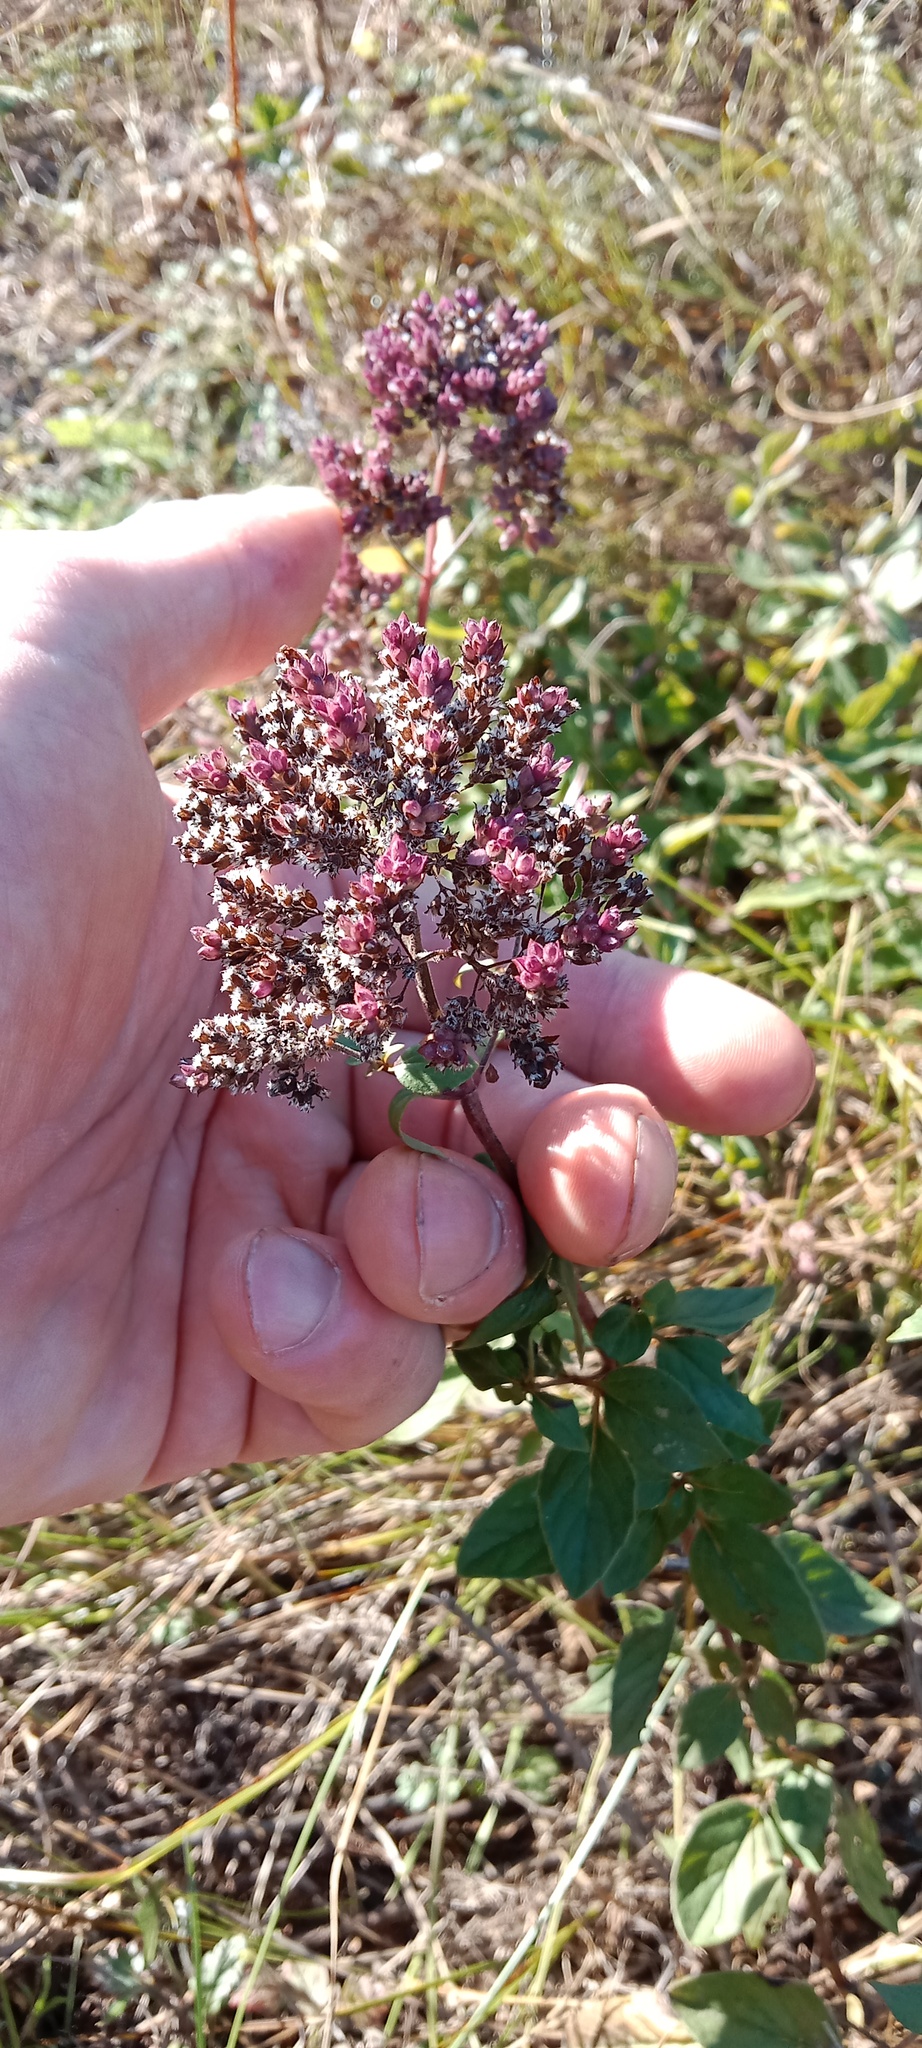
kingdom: Plantae
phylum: Tracheophyta
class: Magnoliopsida
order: Lamiales
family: Lamiaceae
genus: Origanum
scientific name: Origanum vulgare
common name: Wild marjoram
